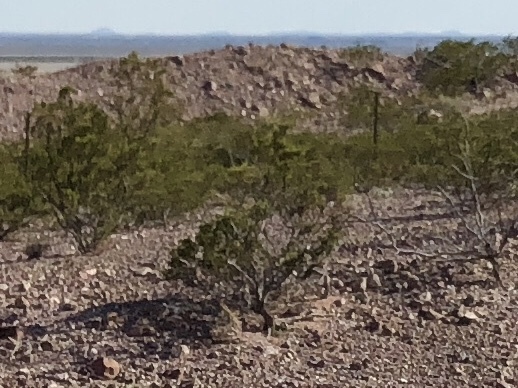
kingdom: Plantae
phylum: Tracheophyta
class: Magnoliopsida
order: Zygophyllales
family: Zygophyllaceae
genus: Larrea
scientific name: Larrea tridentata
